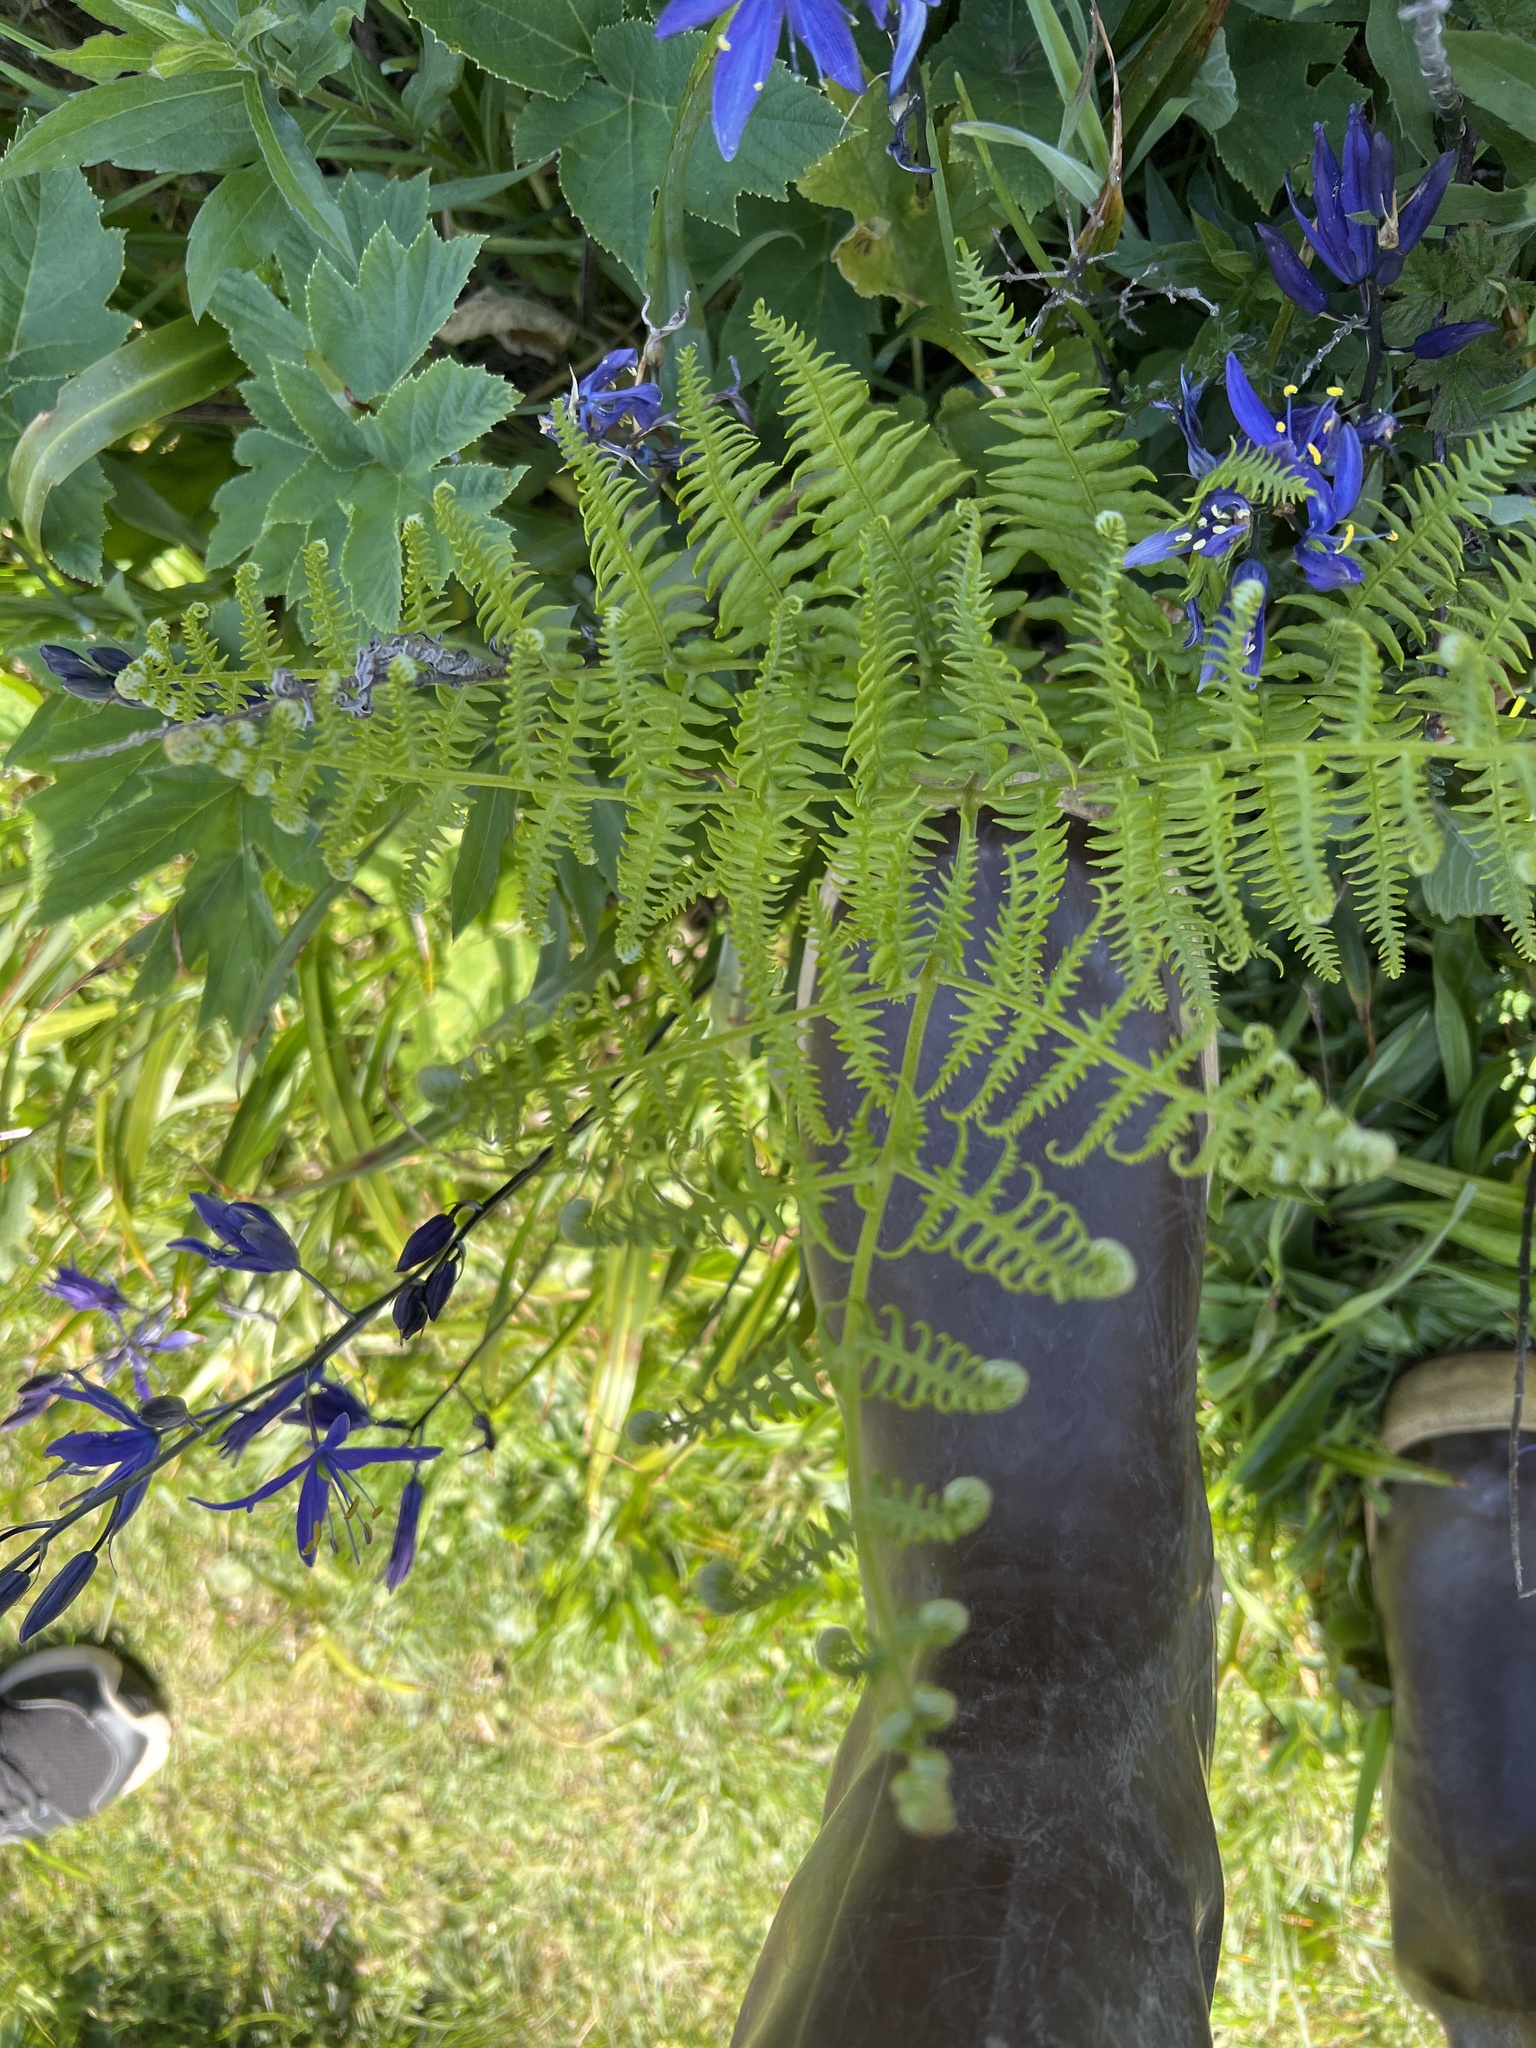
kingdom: Plantae
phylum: Tracheophyta
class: Polypodiopsida
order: Polypodiales
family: Dennstaedtiaceae
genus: Pteridium
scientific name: Pteridium aquilinum
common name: Bracken
